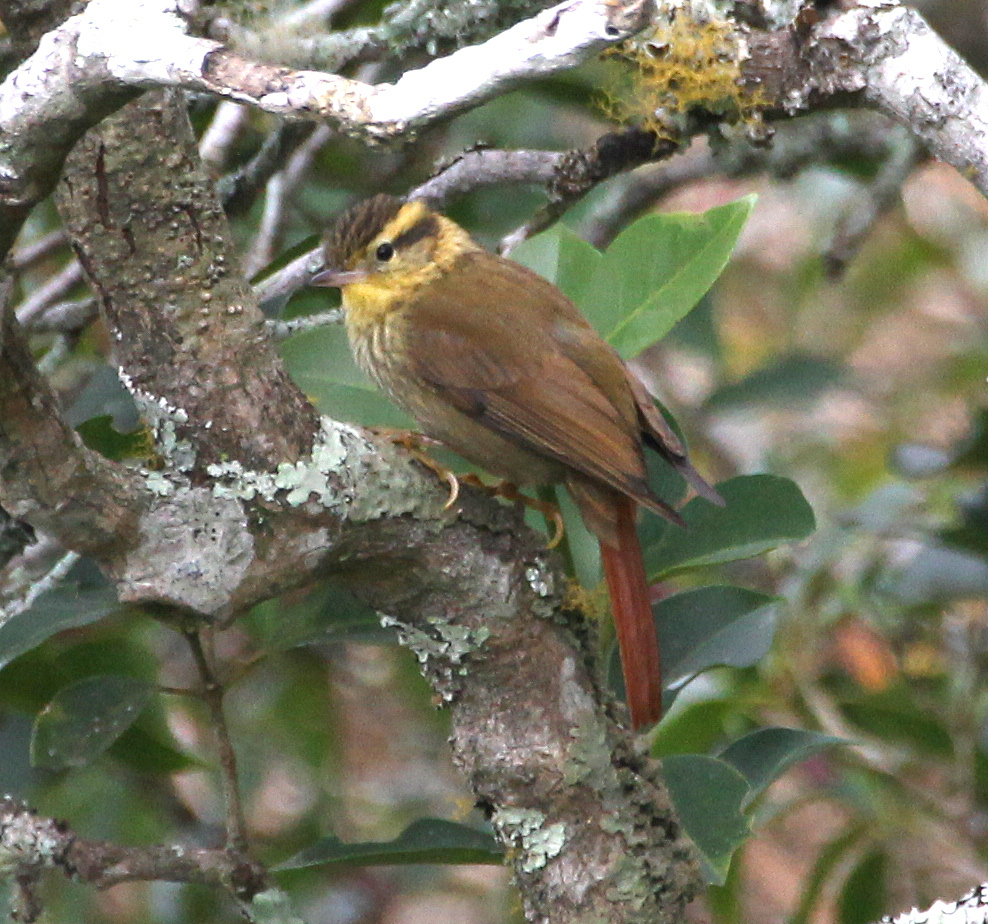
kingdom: Animalia
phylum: Chordata
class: Aves
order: Passeriformes
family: Furnariidae
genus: Heliobletus
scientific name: Heliobletus contaminatus
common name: Sharp-billed treehunter
